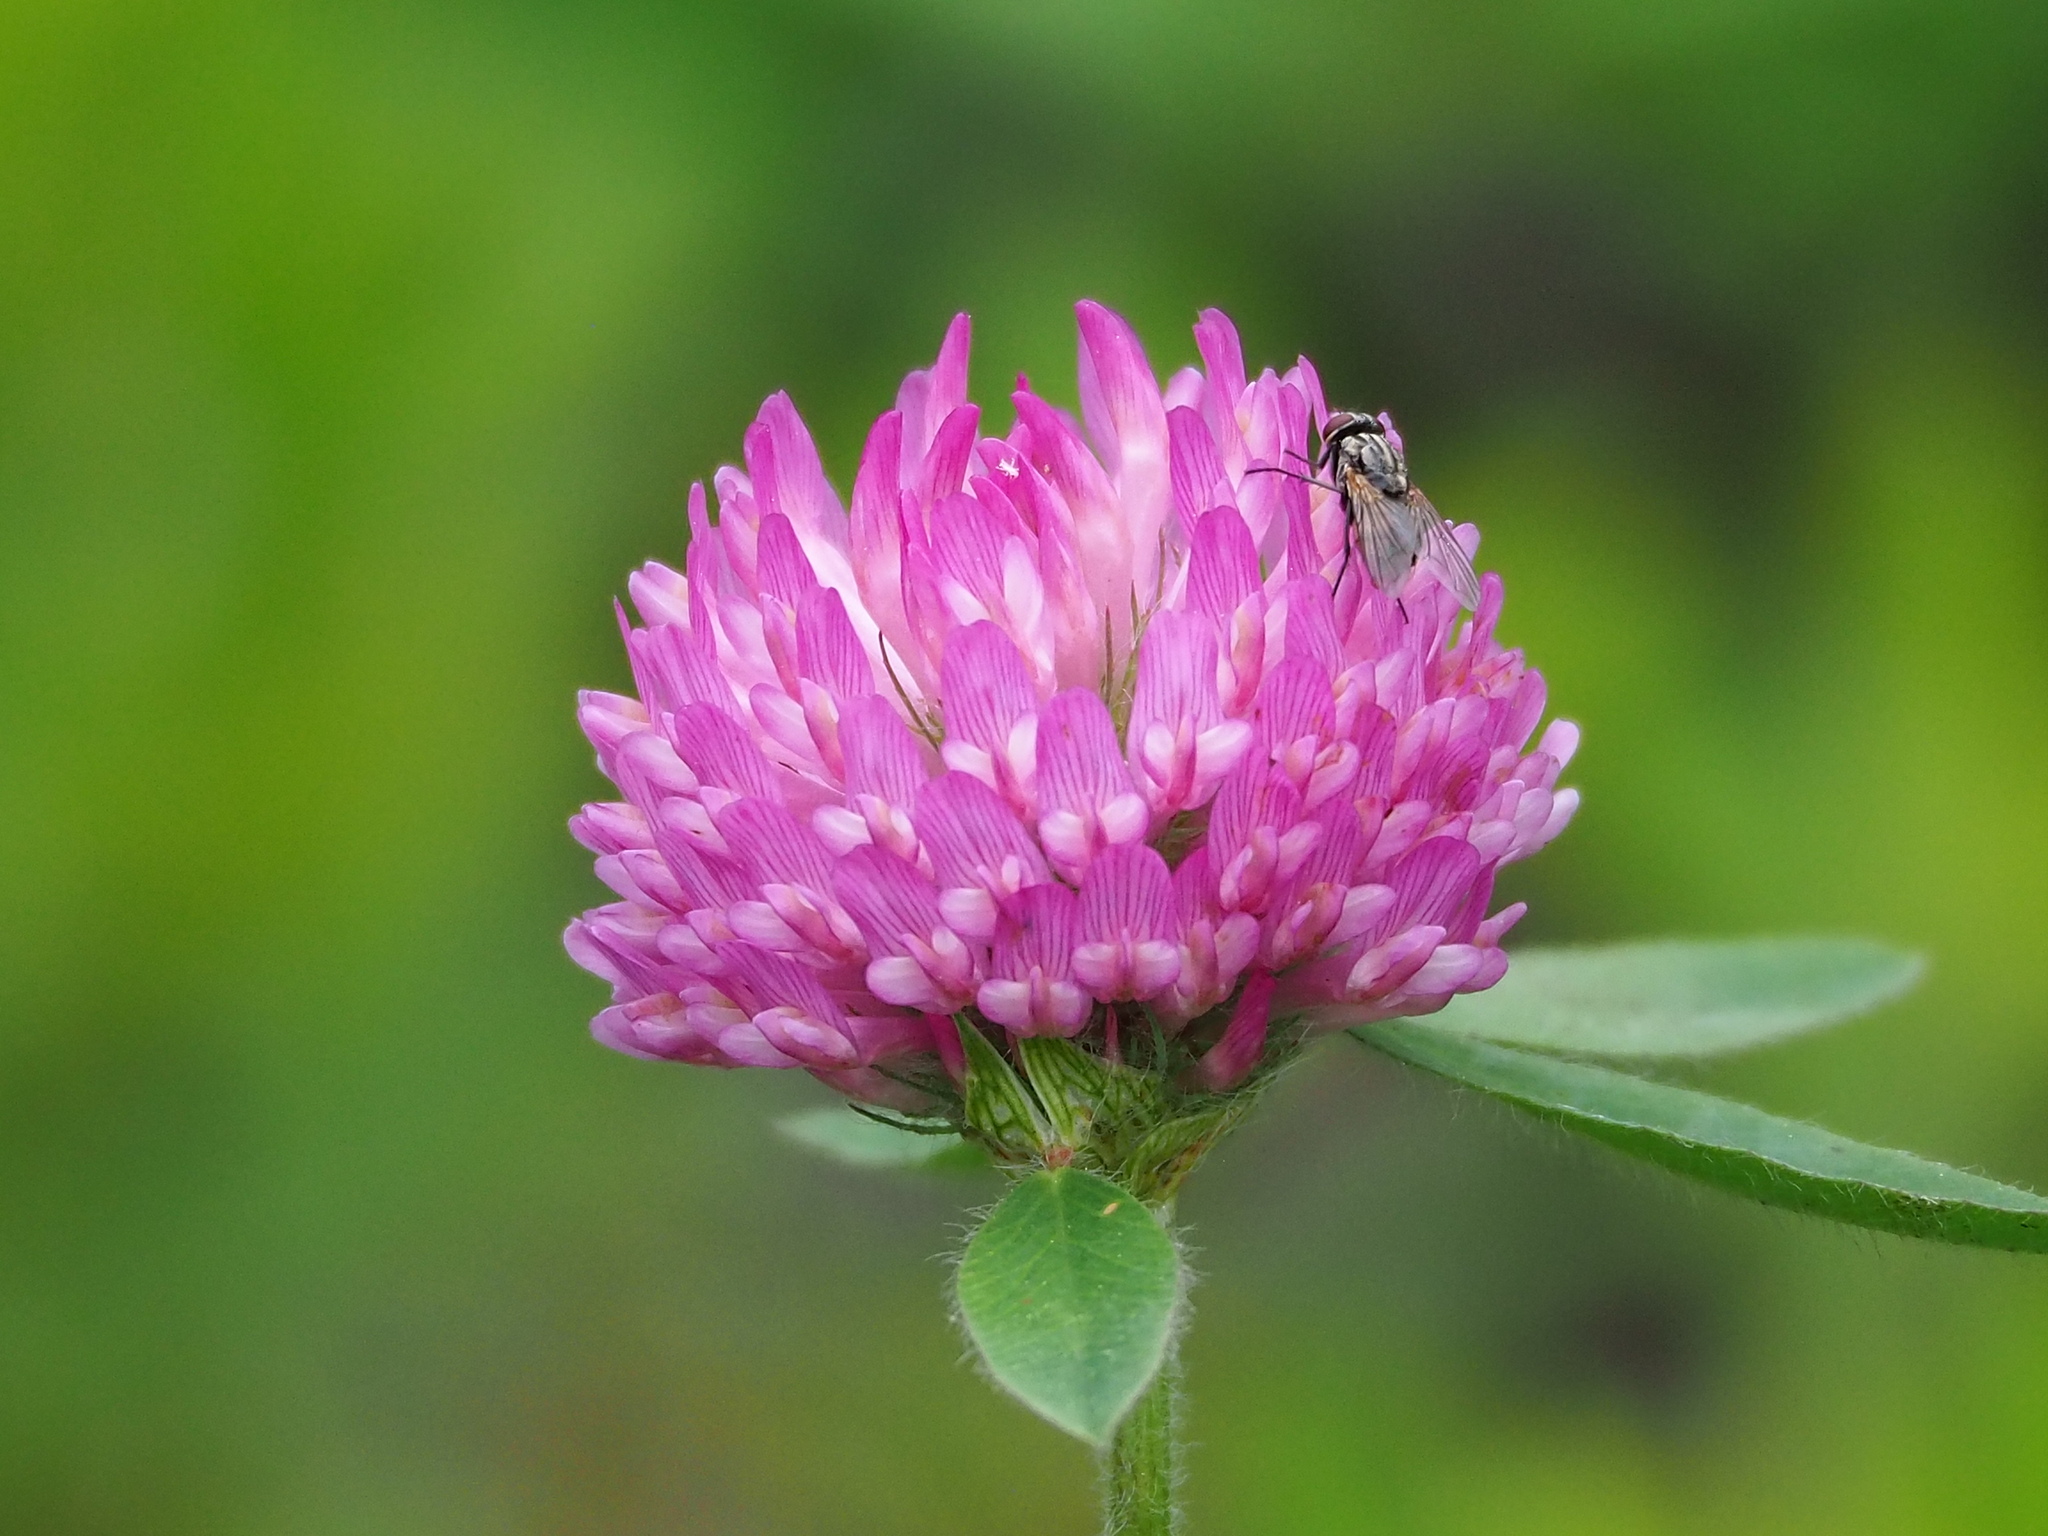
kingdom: Plantae
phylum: Tracheophyta
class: Magnoliopsida
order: Fabales
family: Fabaceae
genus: Trifolium
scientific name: Trifolium pratense
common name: Red clover
